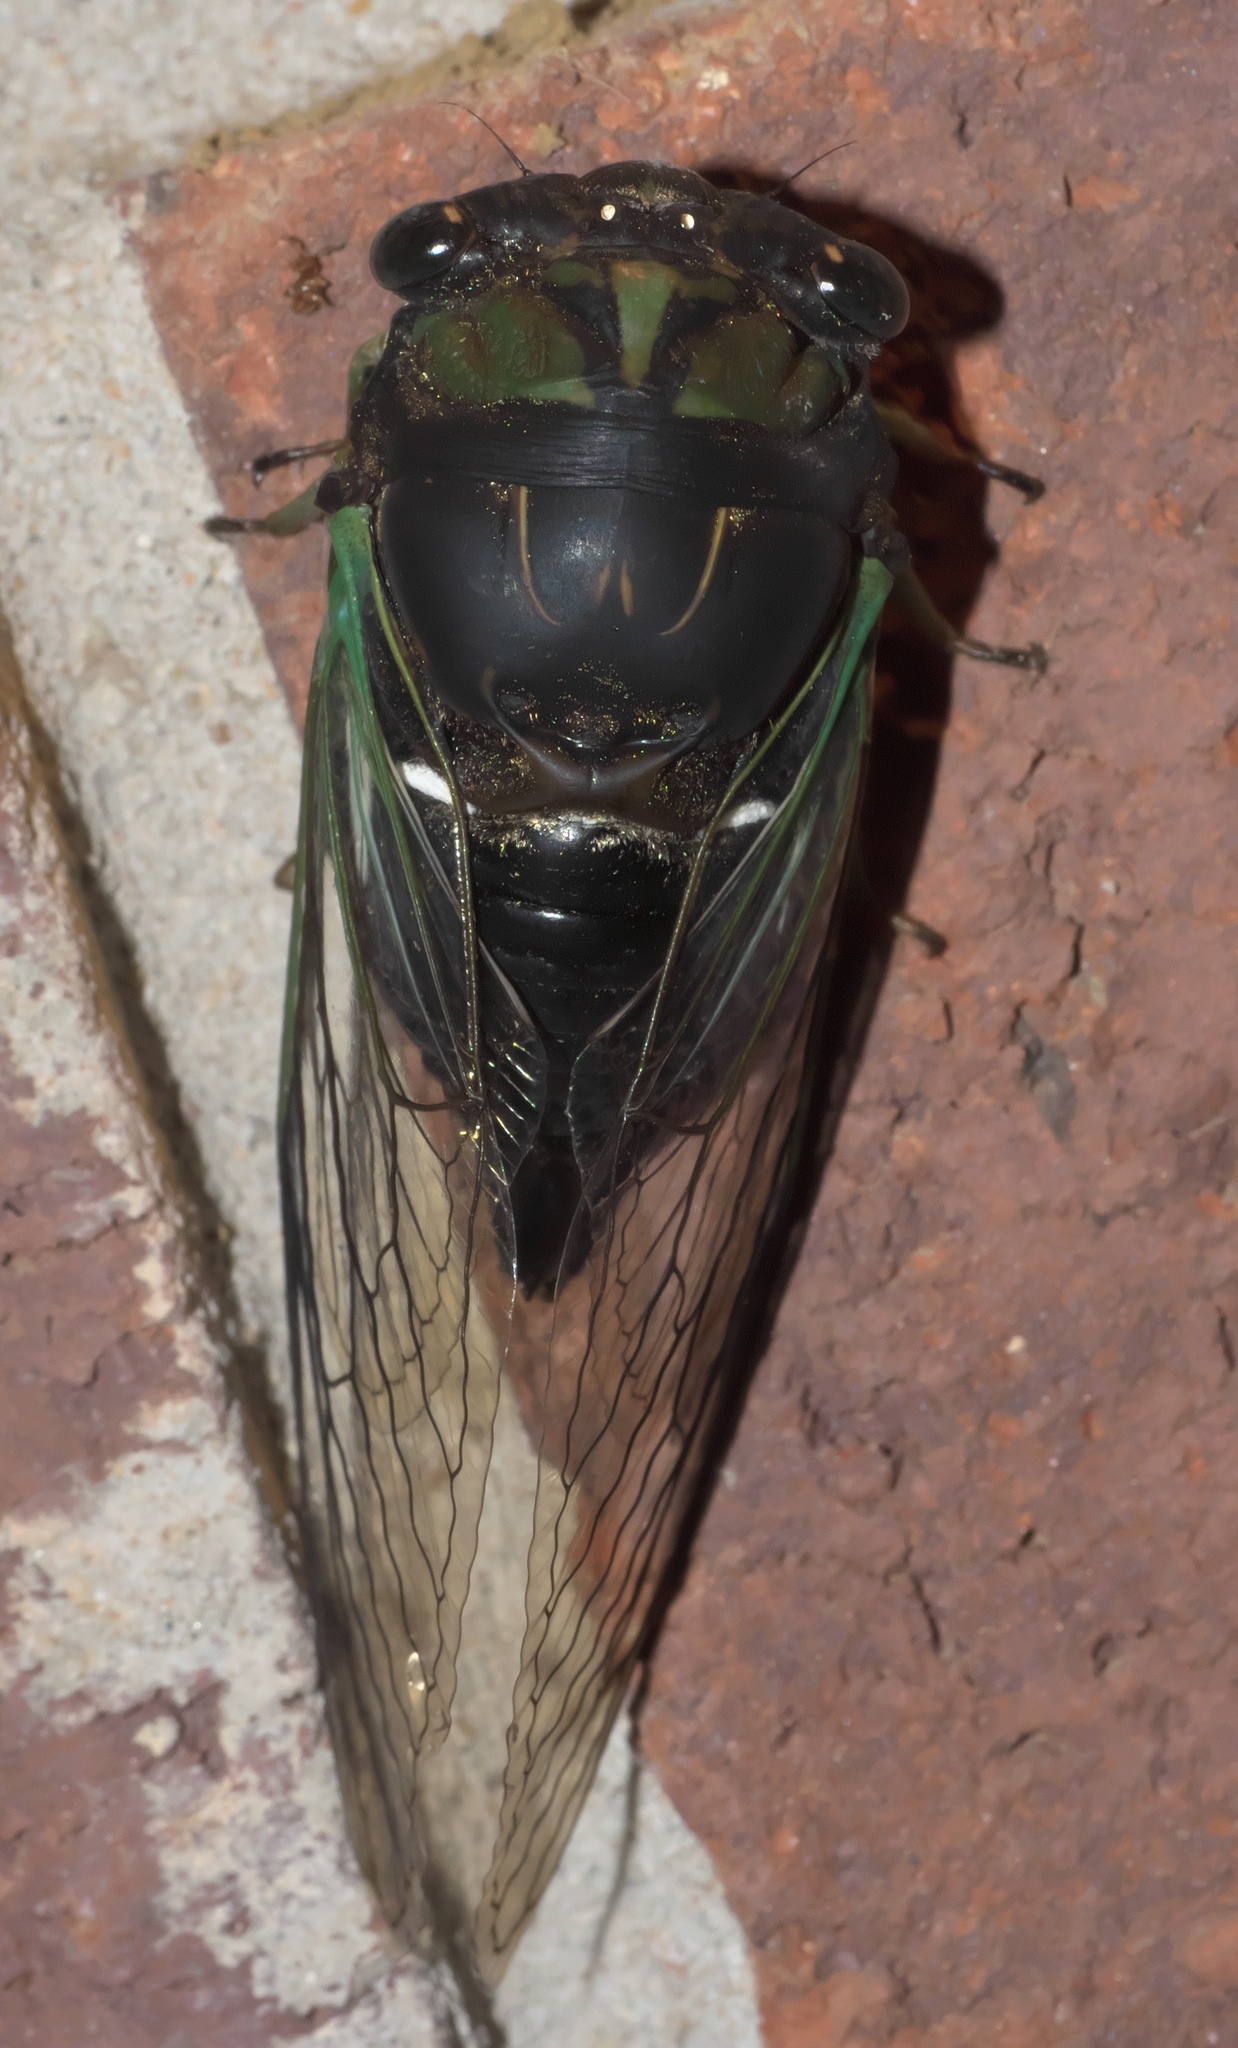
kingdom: Animalia
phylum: Arthropoda
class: Insecta
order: Hemiptera
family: Cicadidae
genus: Neotibicen
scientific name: Neotibicen tibicen
